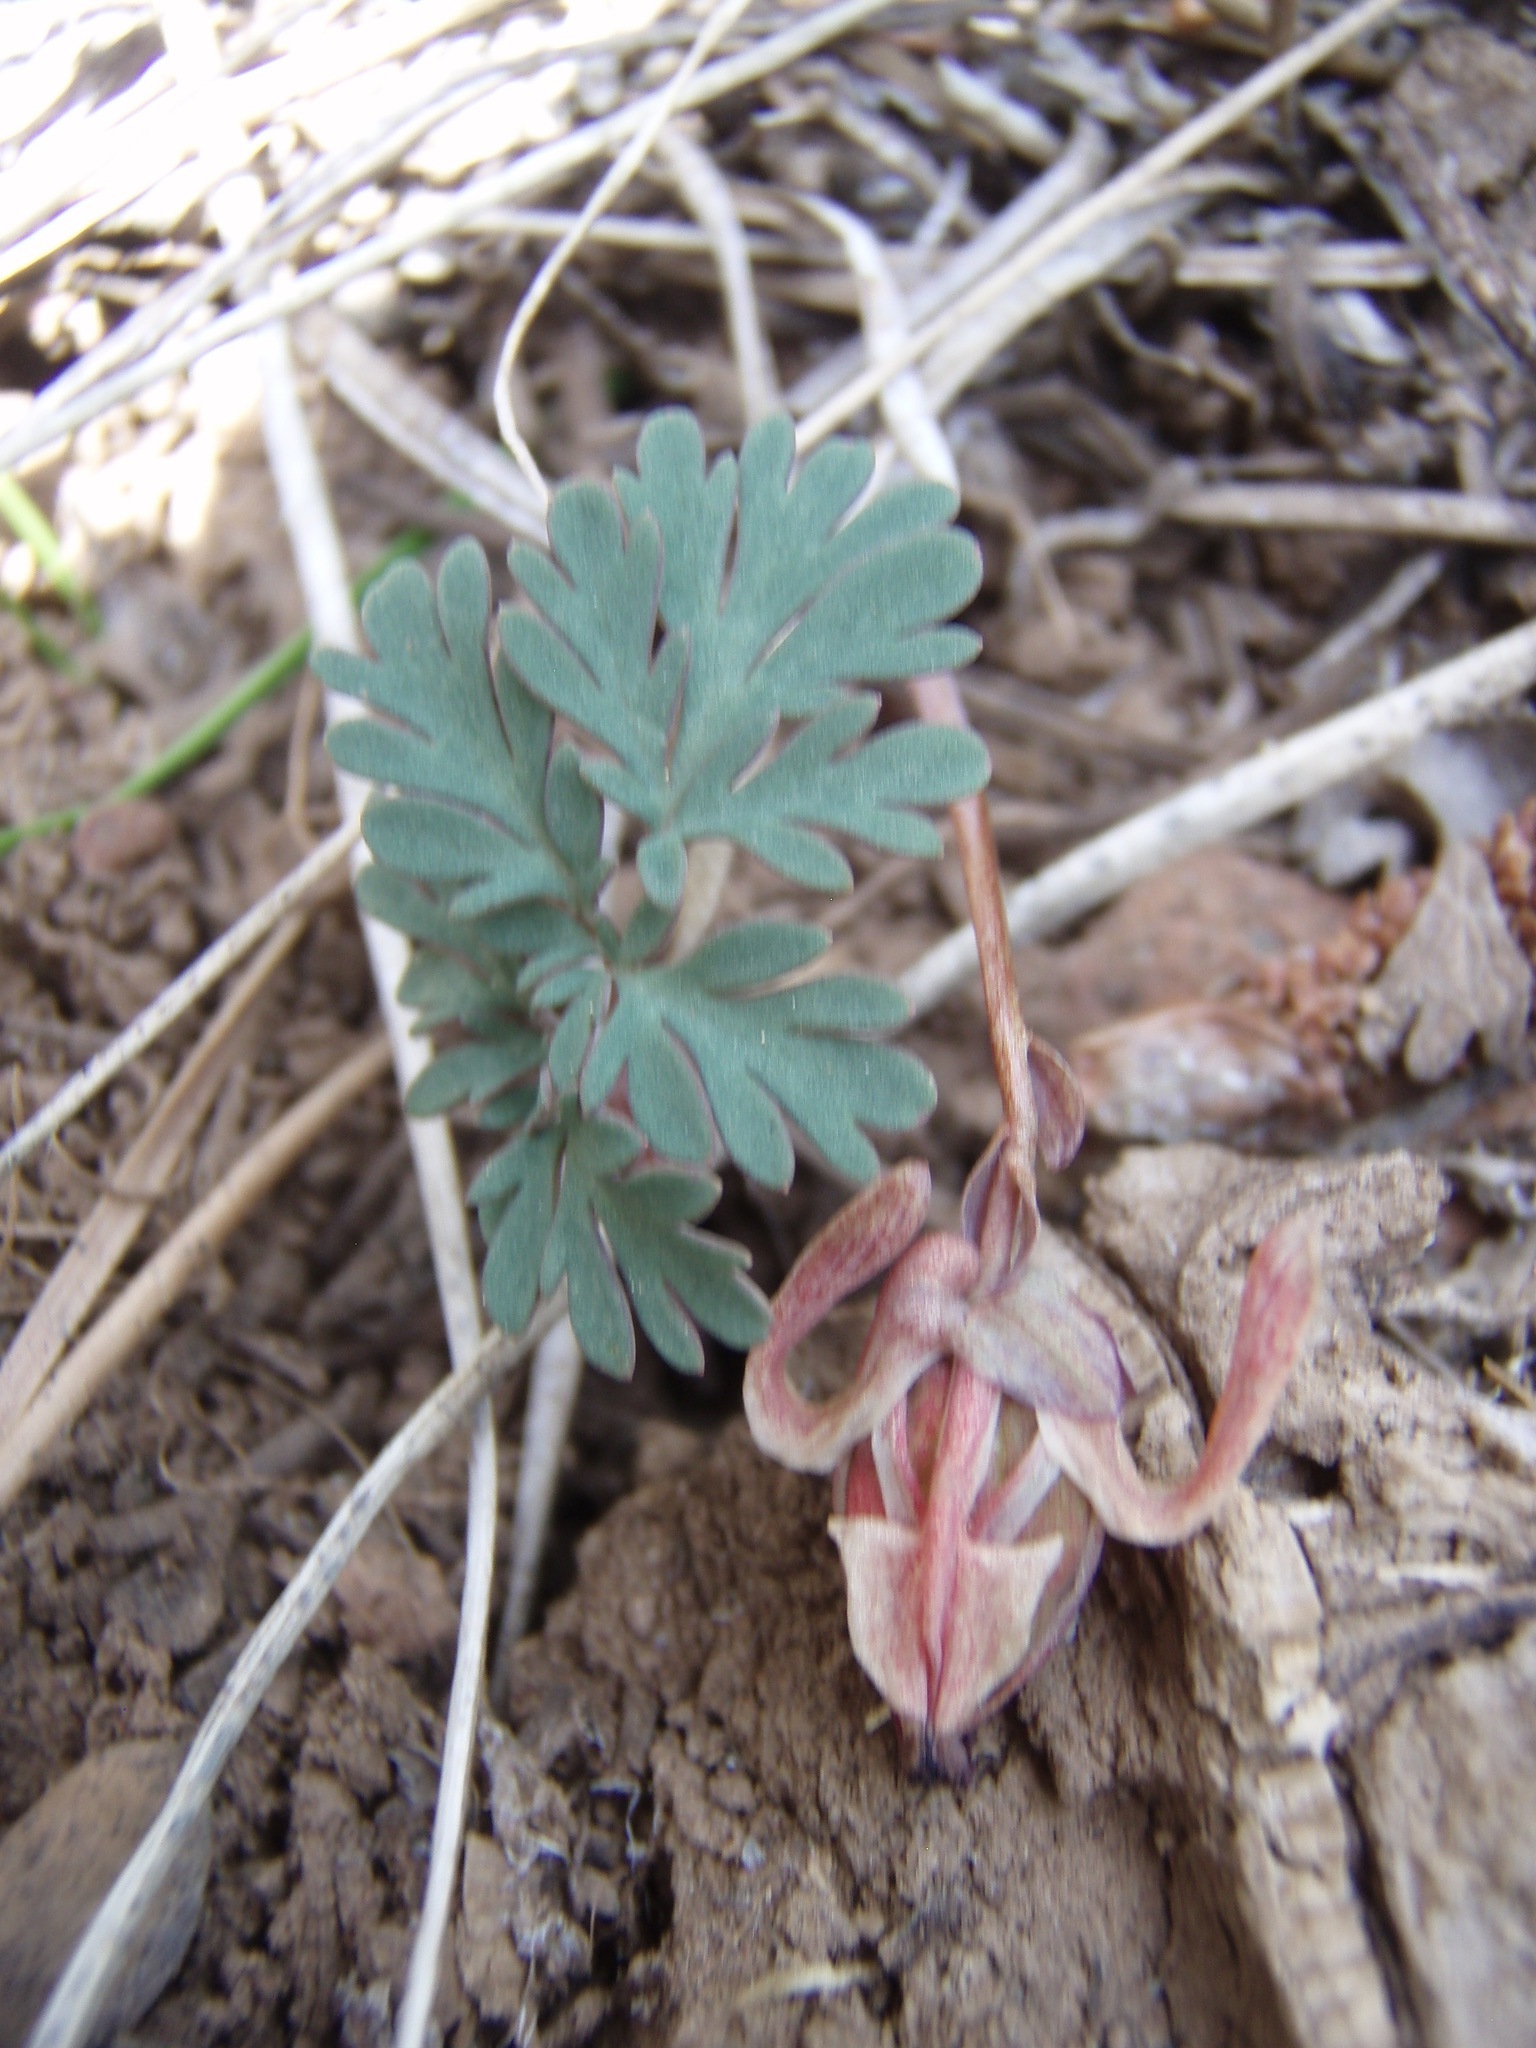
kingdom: Plantae
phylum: Tracheophyta
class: Magnoliopsida
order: Ranunculales
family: Papaveraceae
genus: Dicentra
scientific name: Dicentra uniflora
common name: Steer's-head
